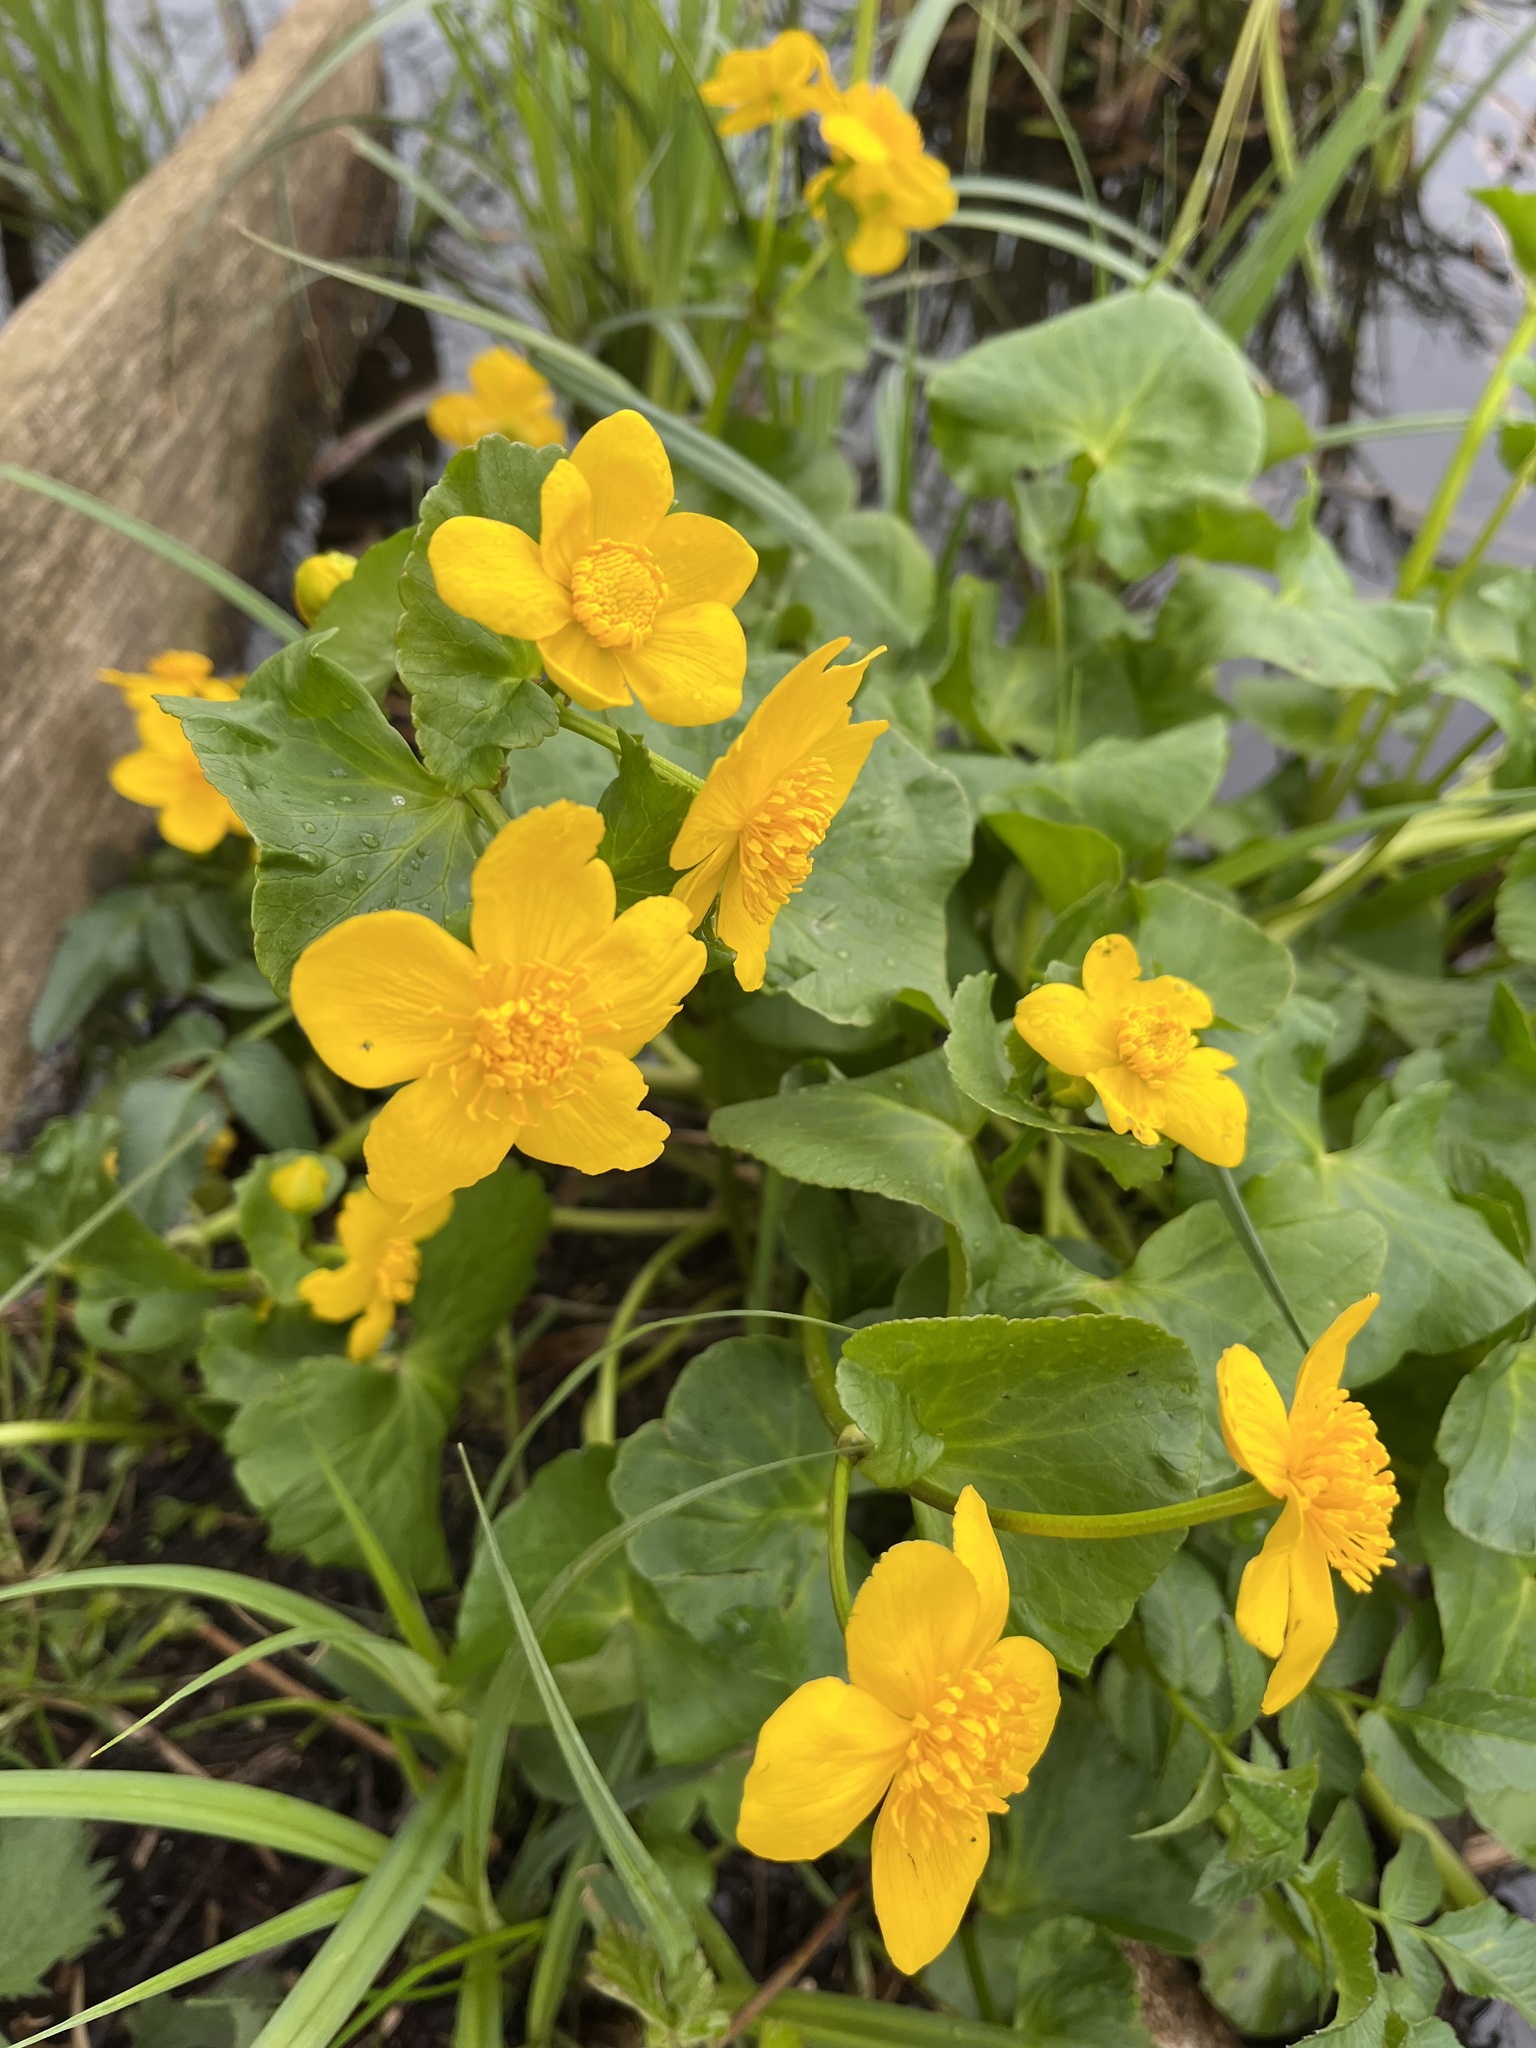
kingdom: Plantae
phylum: Tracheophyta
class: Magnoliopsida
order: Ranunculales
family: Ranunculaceae
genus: Caltha
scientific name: Caltha palustris
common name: Marsh marigold
